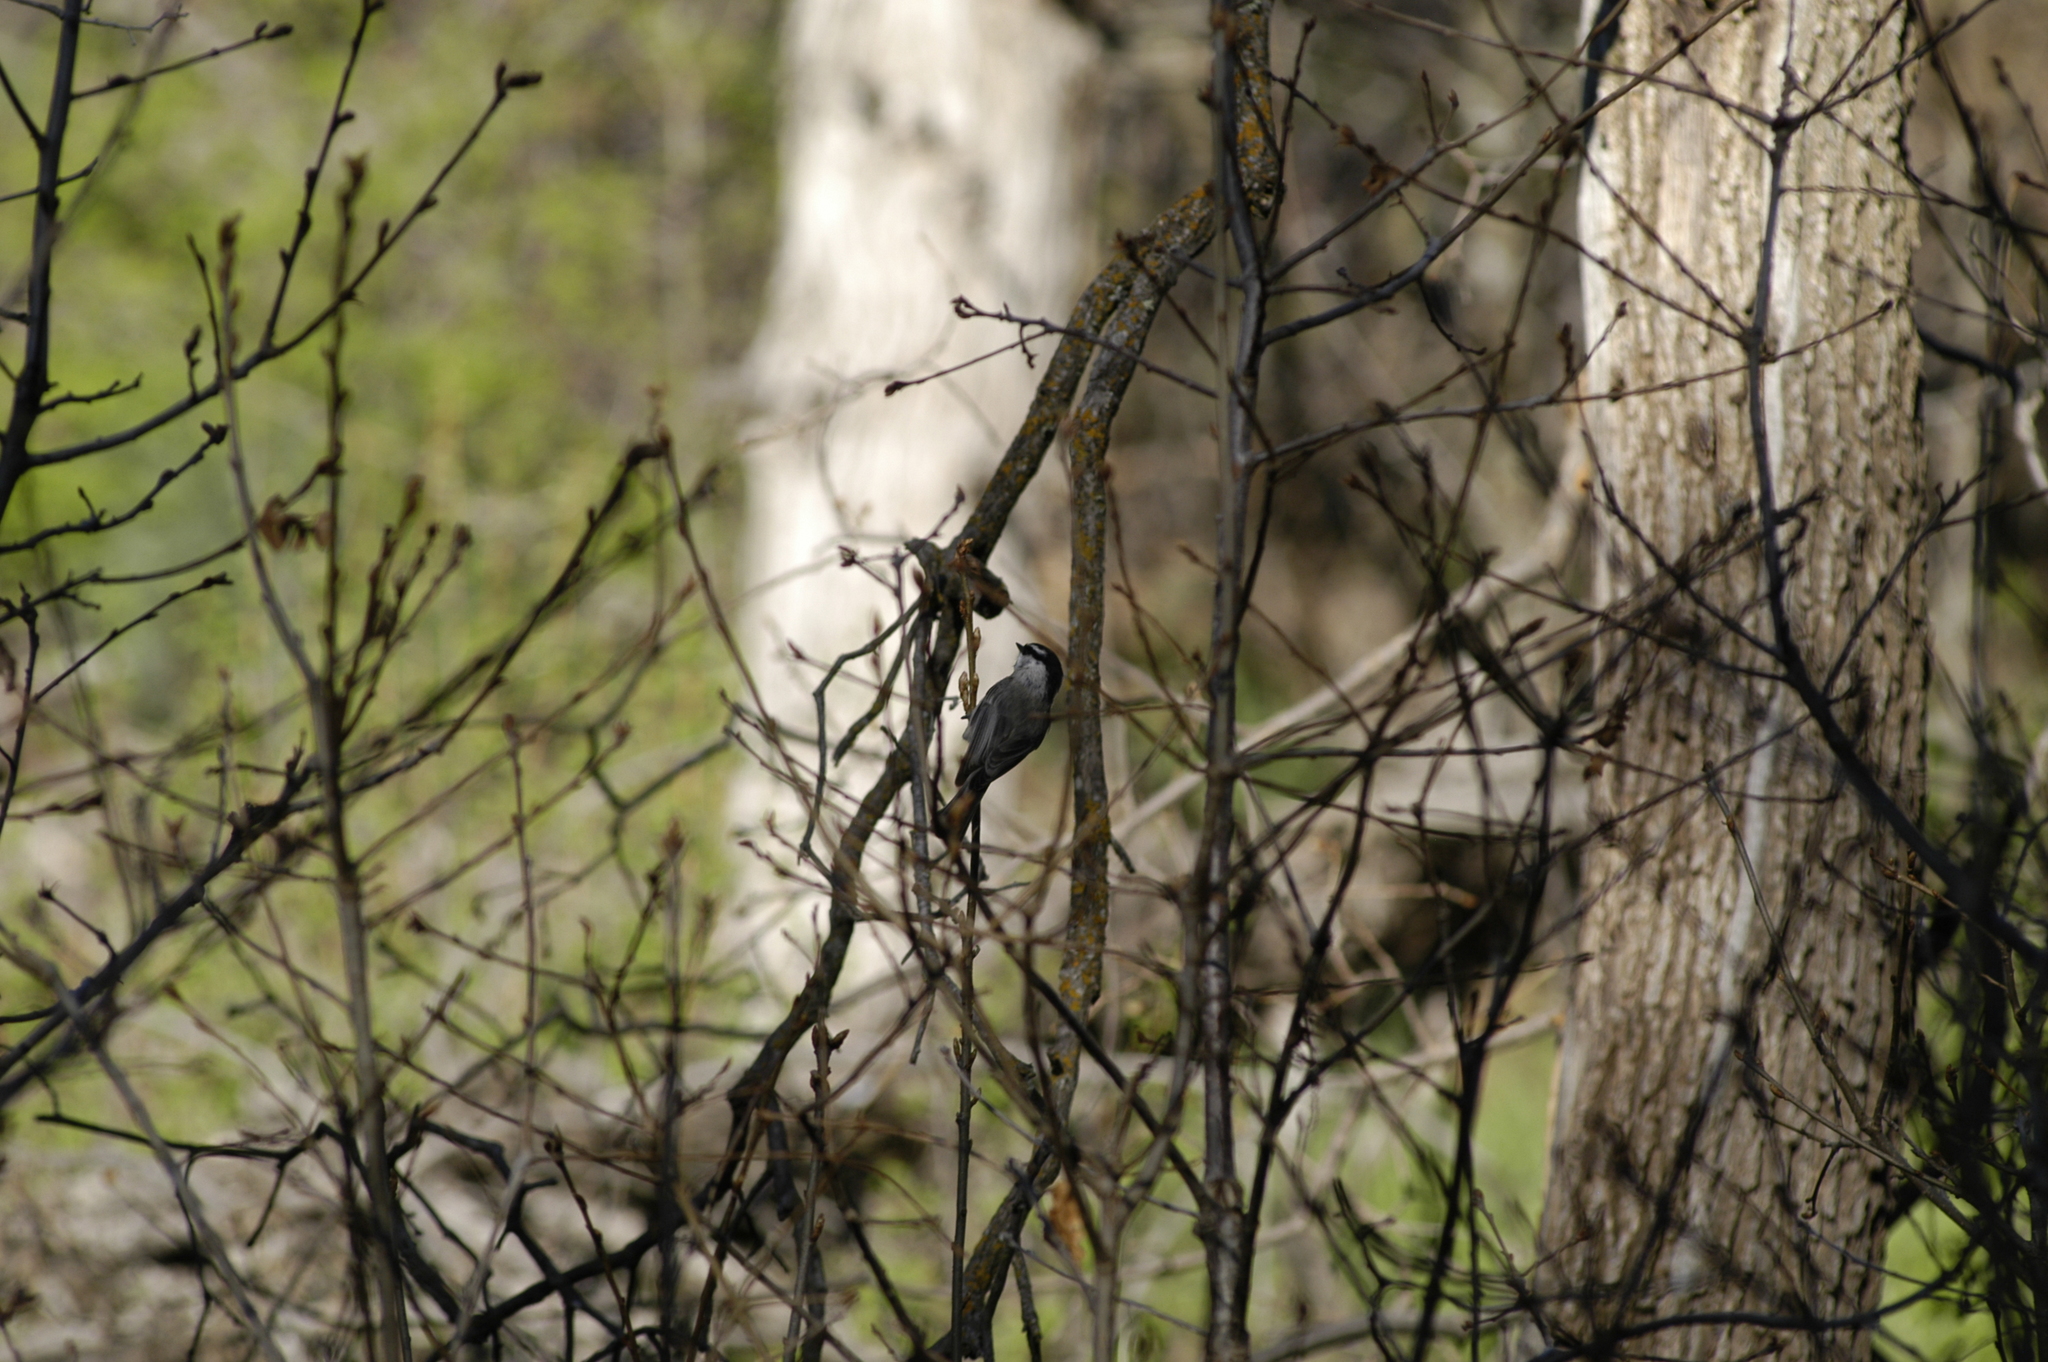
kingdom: Animalia
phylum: Chordata
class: Aves
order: Passeriformes
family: Paridae
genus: Poecile
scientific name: Poecile gambeli
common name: Mountain chickadee
